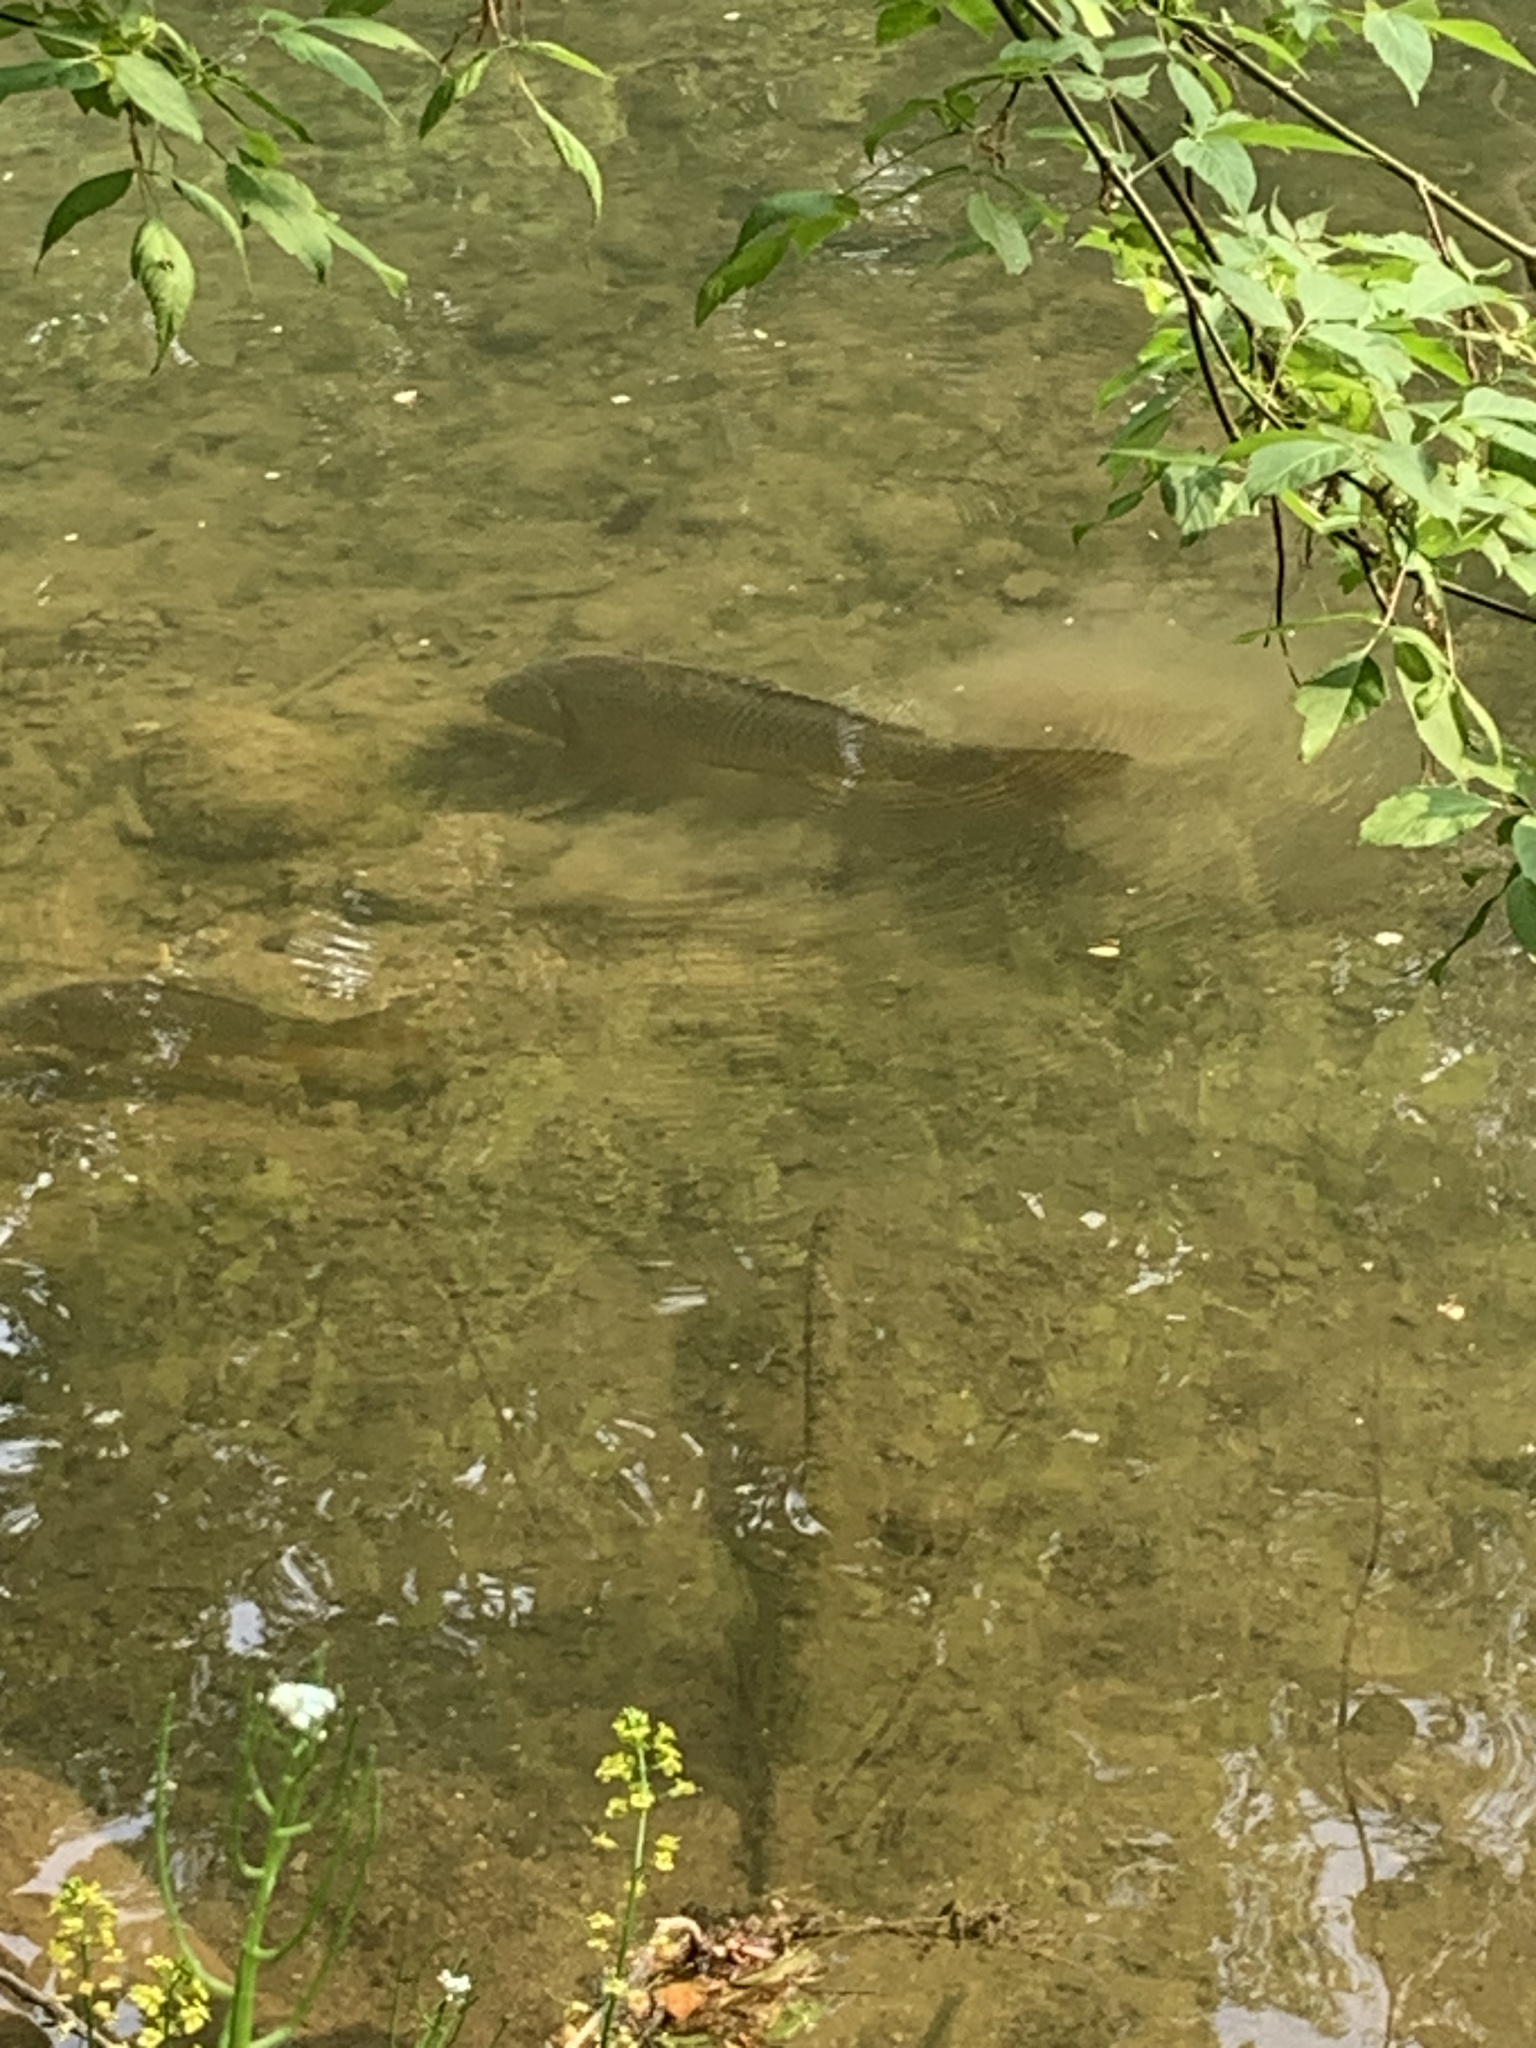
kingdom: Animalia
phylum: Chordata
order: Cypriniformes
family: Cyprinidae
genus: Cyprinus
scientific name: Cyprinus carpio
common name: Common carp
